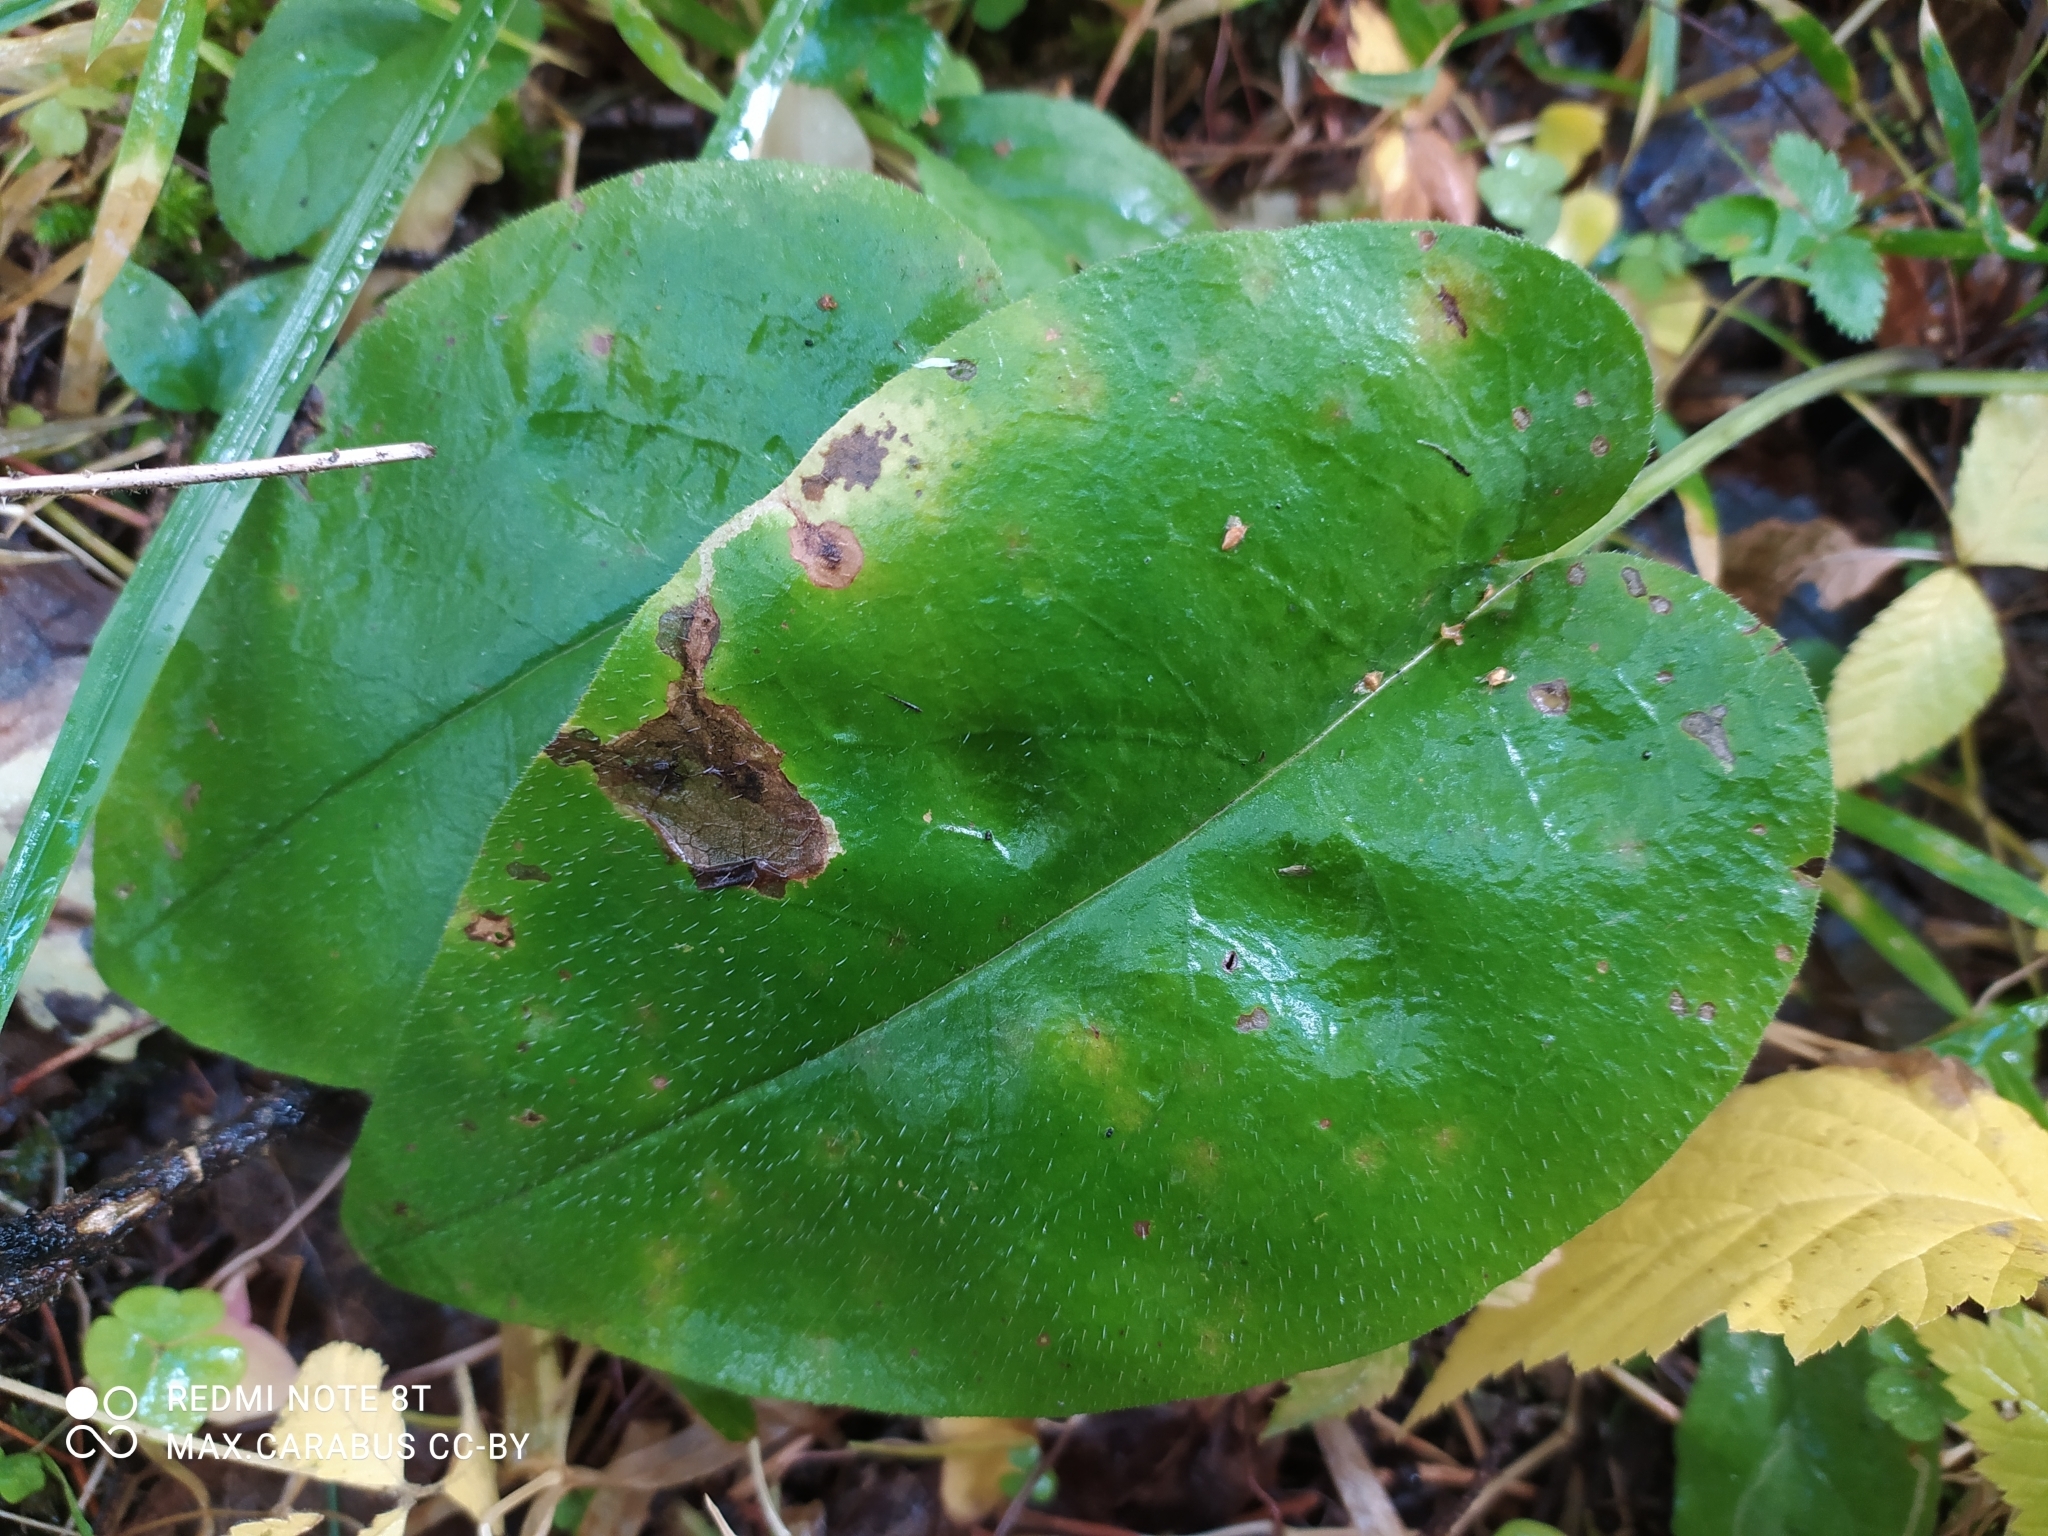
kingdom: Plantae
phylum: Tracheophyta
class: Magnoliopsida
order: Boraginales
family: Boraginaceae
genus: Pulmonaria
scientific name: Pulmonaria obscura
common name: Suffolk lungwort
